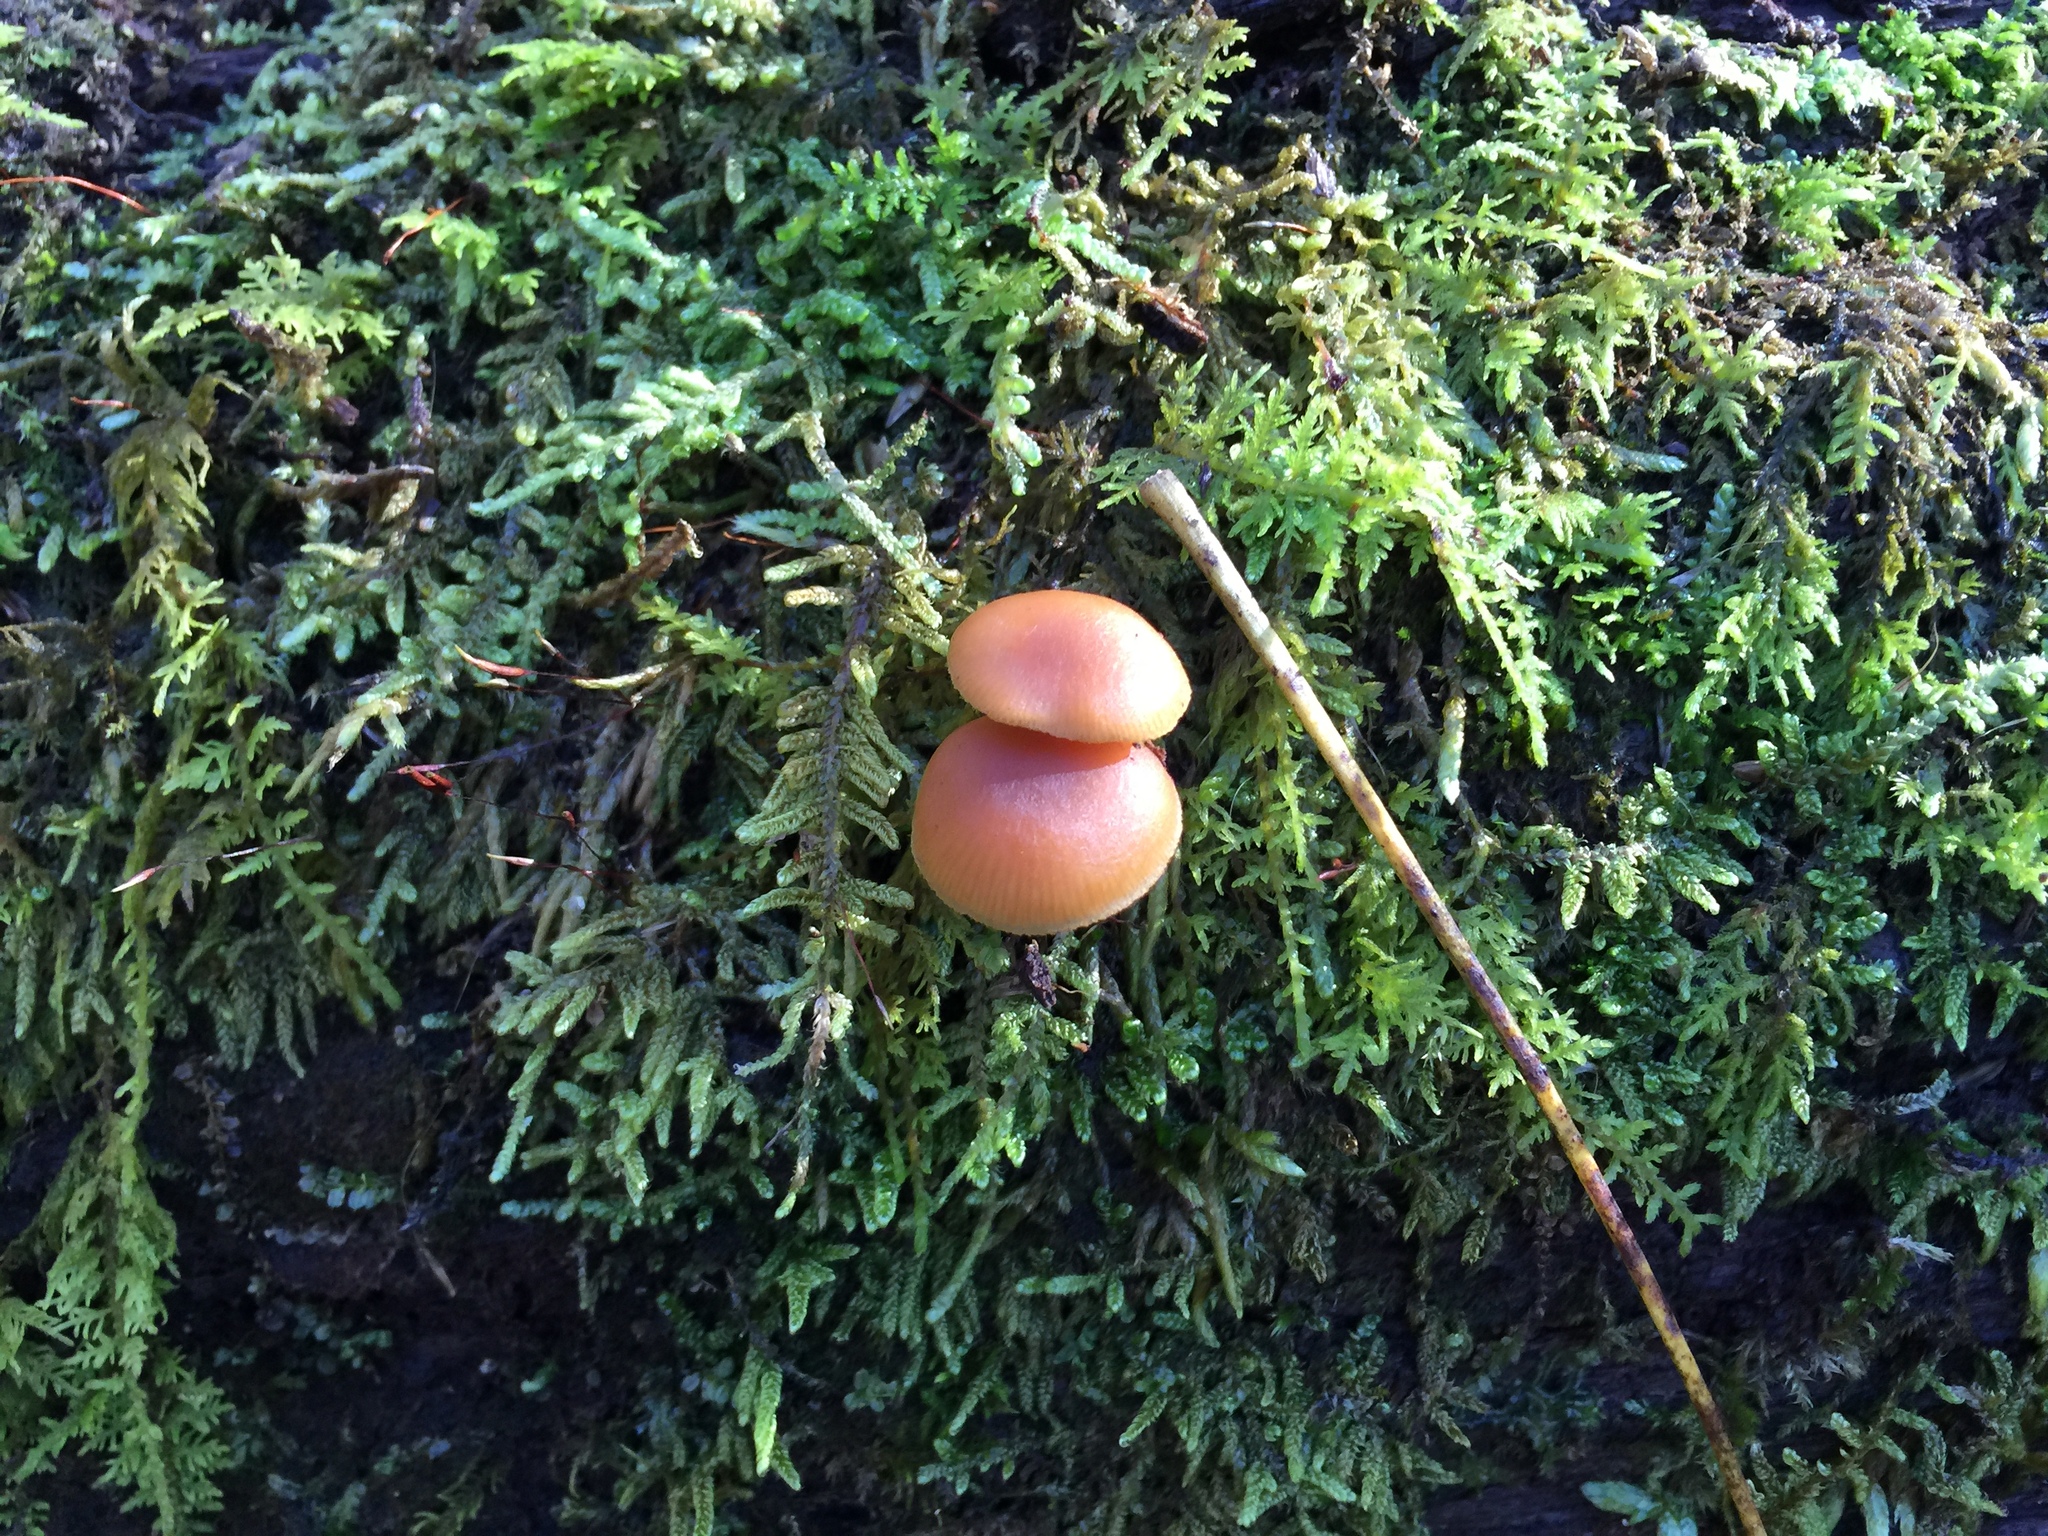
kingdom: Fungi
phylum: Basidiomycota
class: Agaricomycetes
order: Agaricales
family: Hymenogastraceae
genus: Galerina
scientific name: Galerina marginata
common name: Funeral bell
